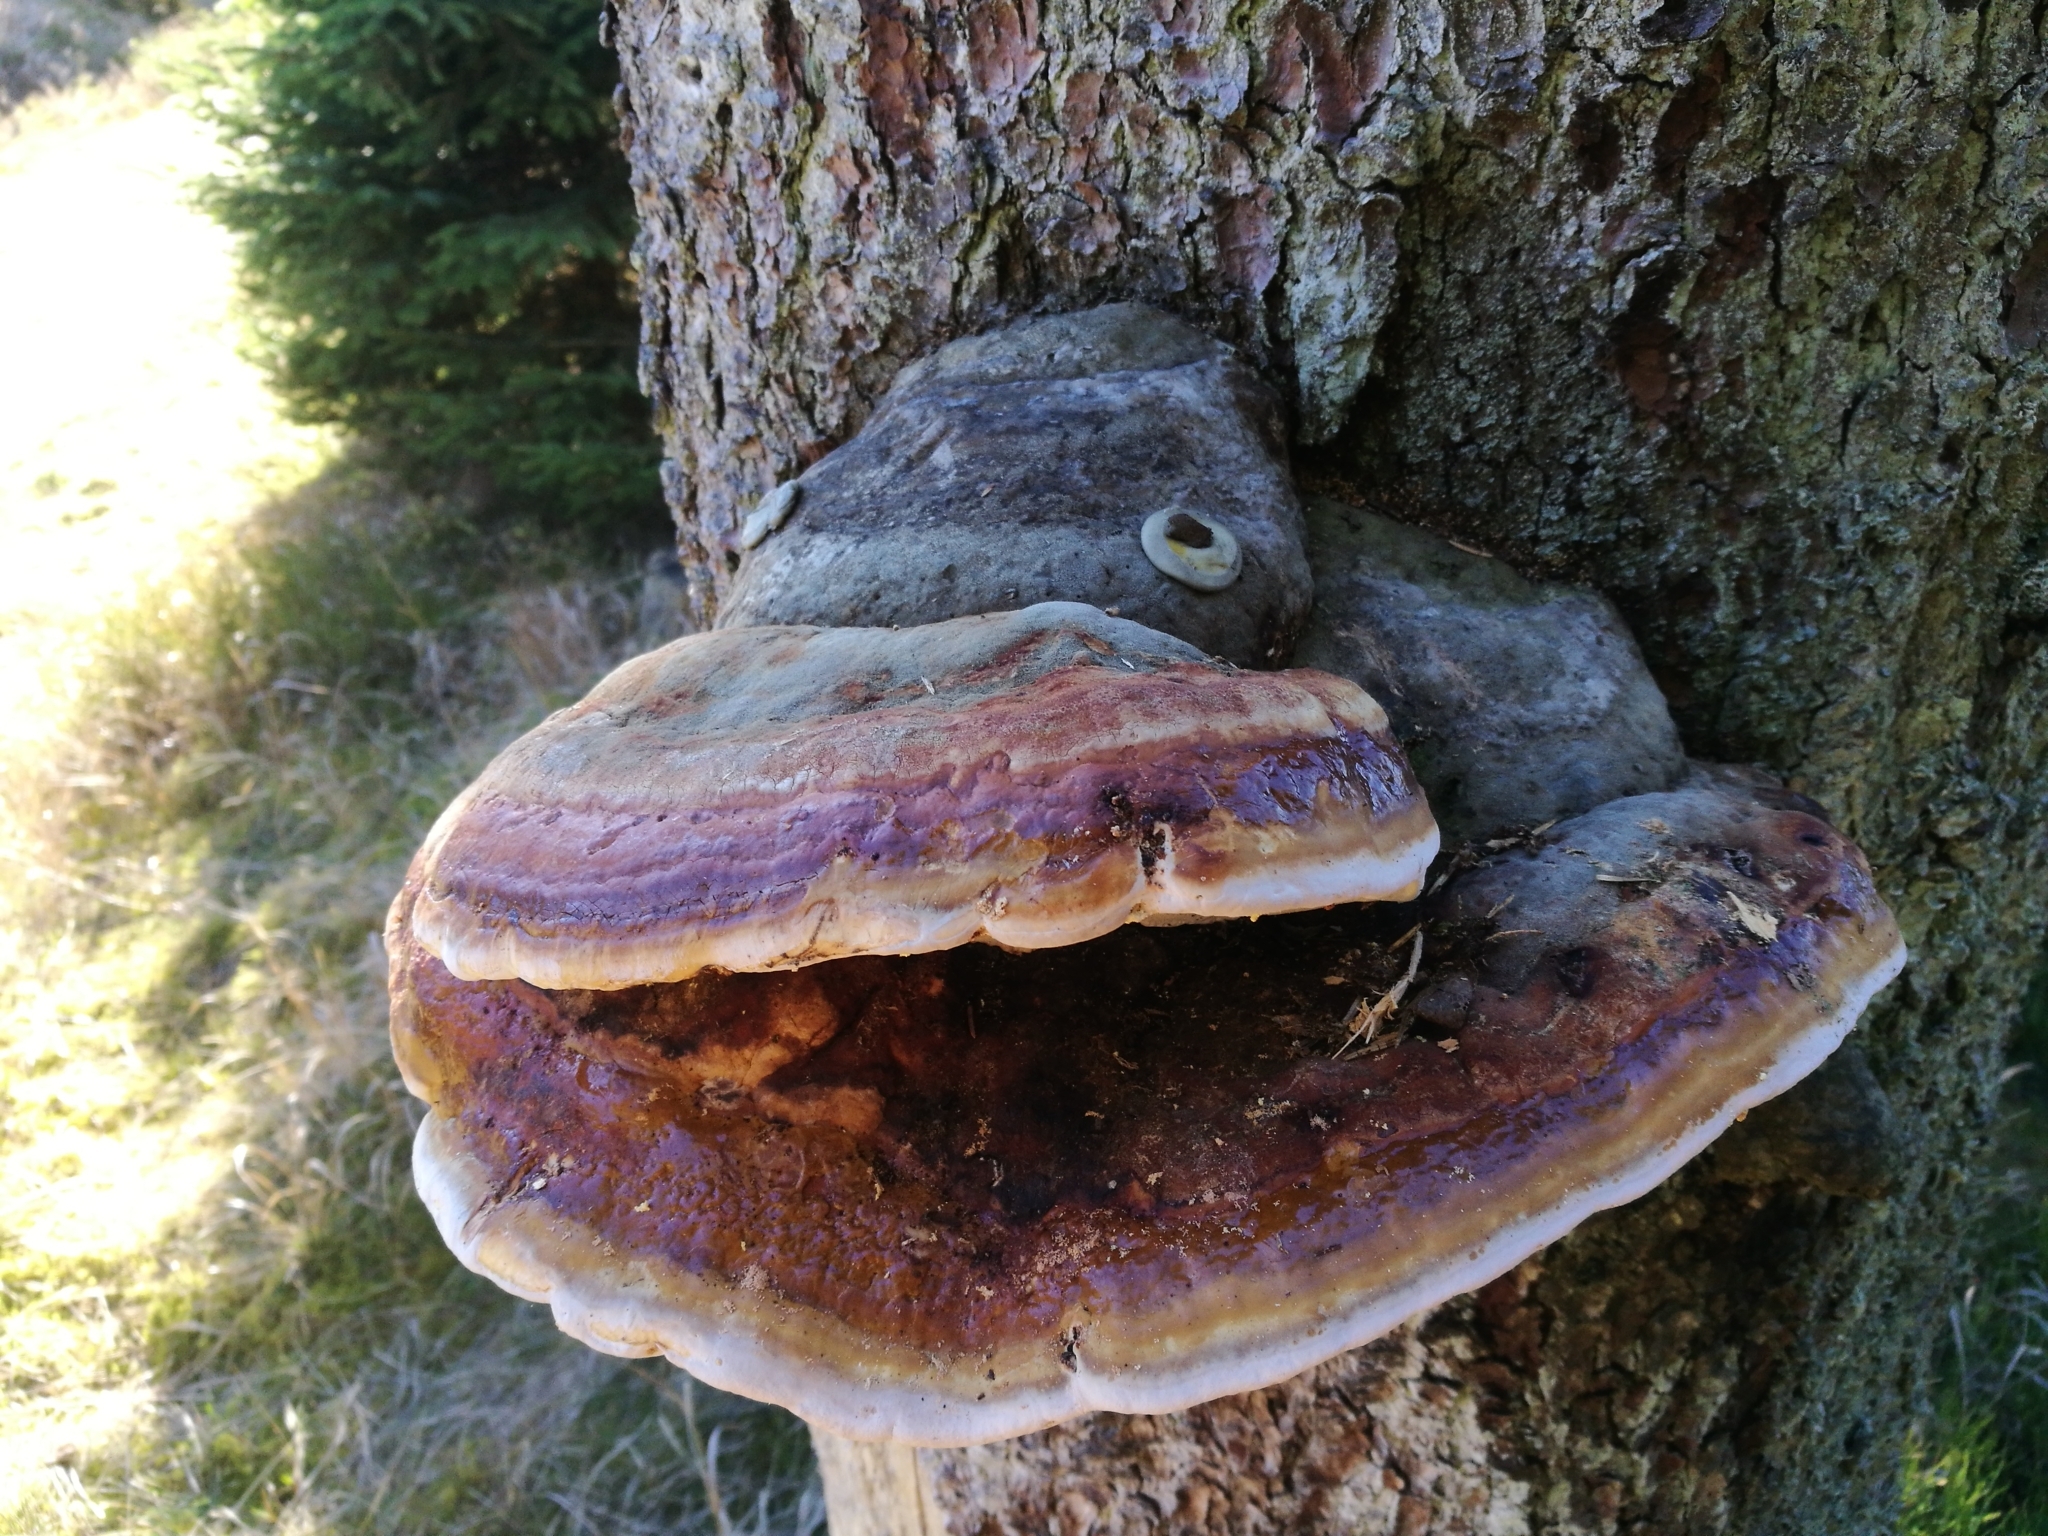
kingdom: Fungi
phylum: Basidiomycota
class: Agaricomycetes
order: Polyporales
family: Fomitopsidaceae
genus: Fomitopsis
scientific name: Fomitopsis pinicola
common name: Red-belted bracket
